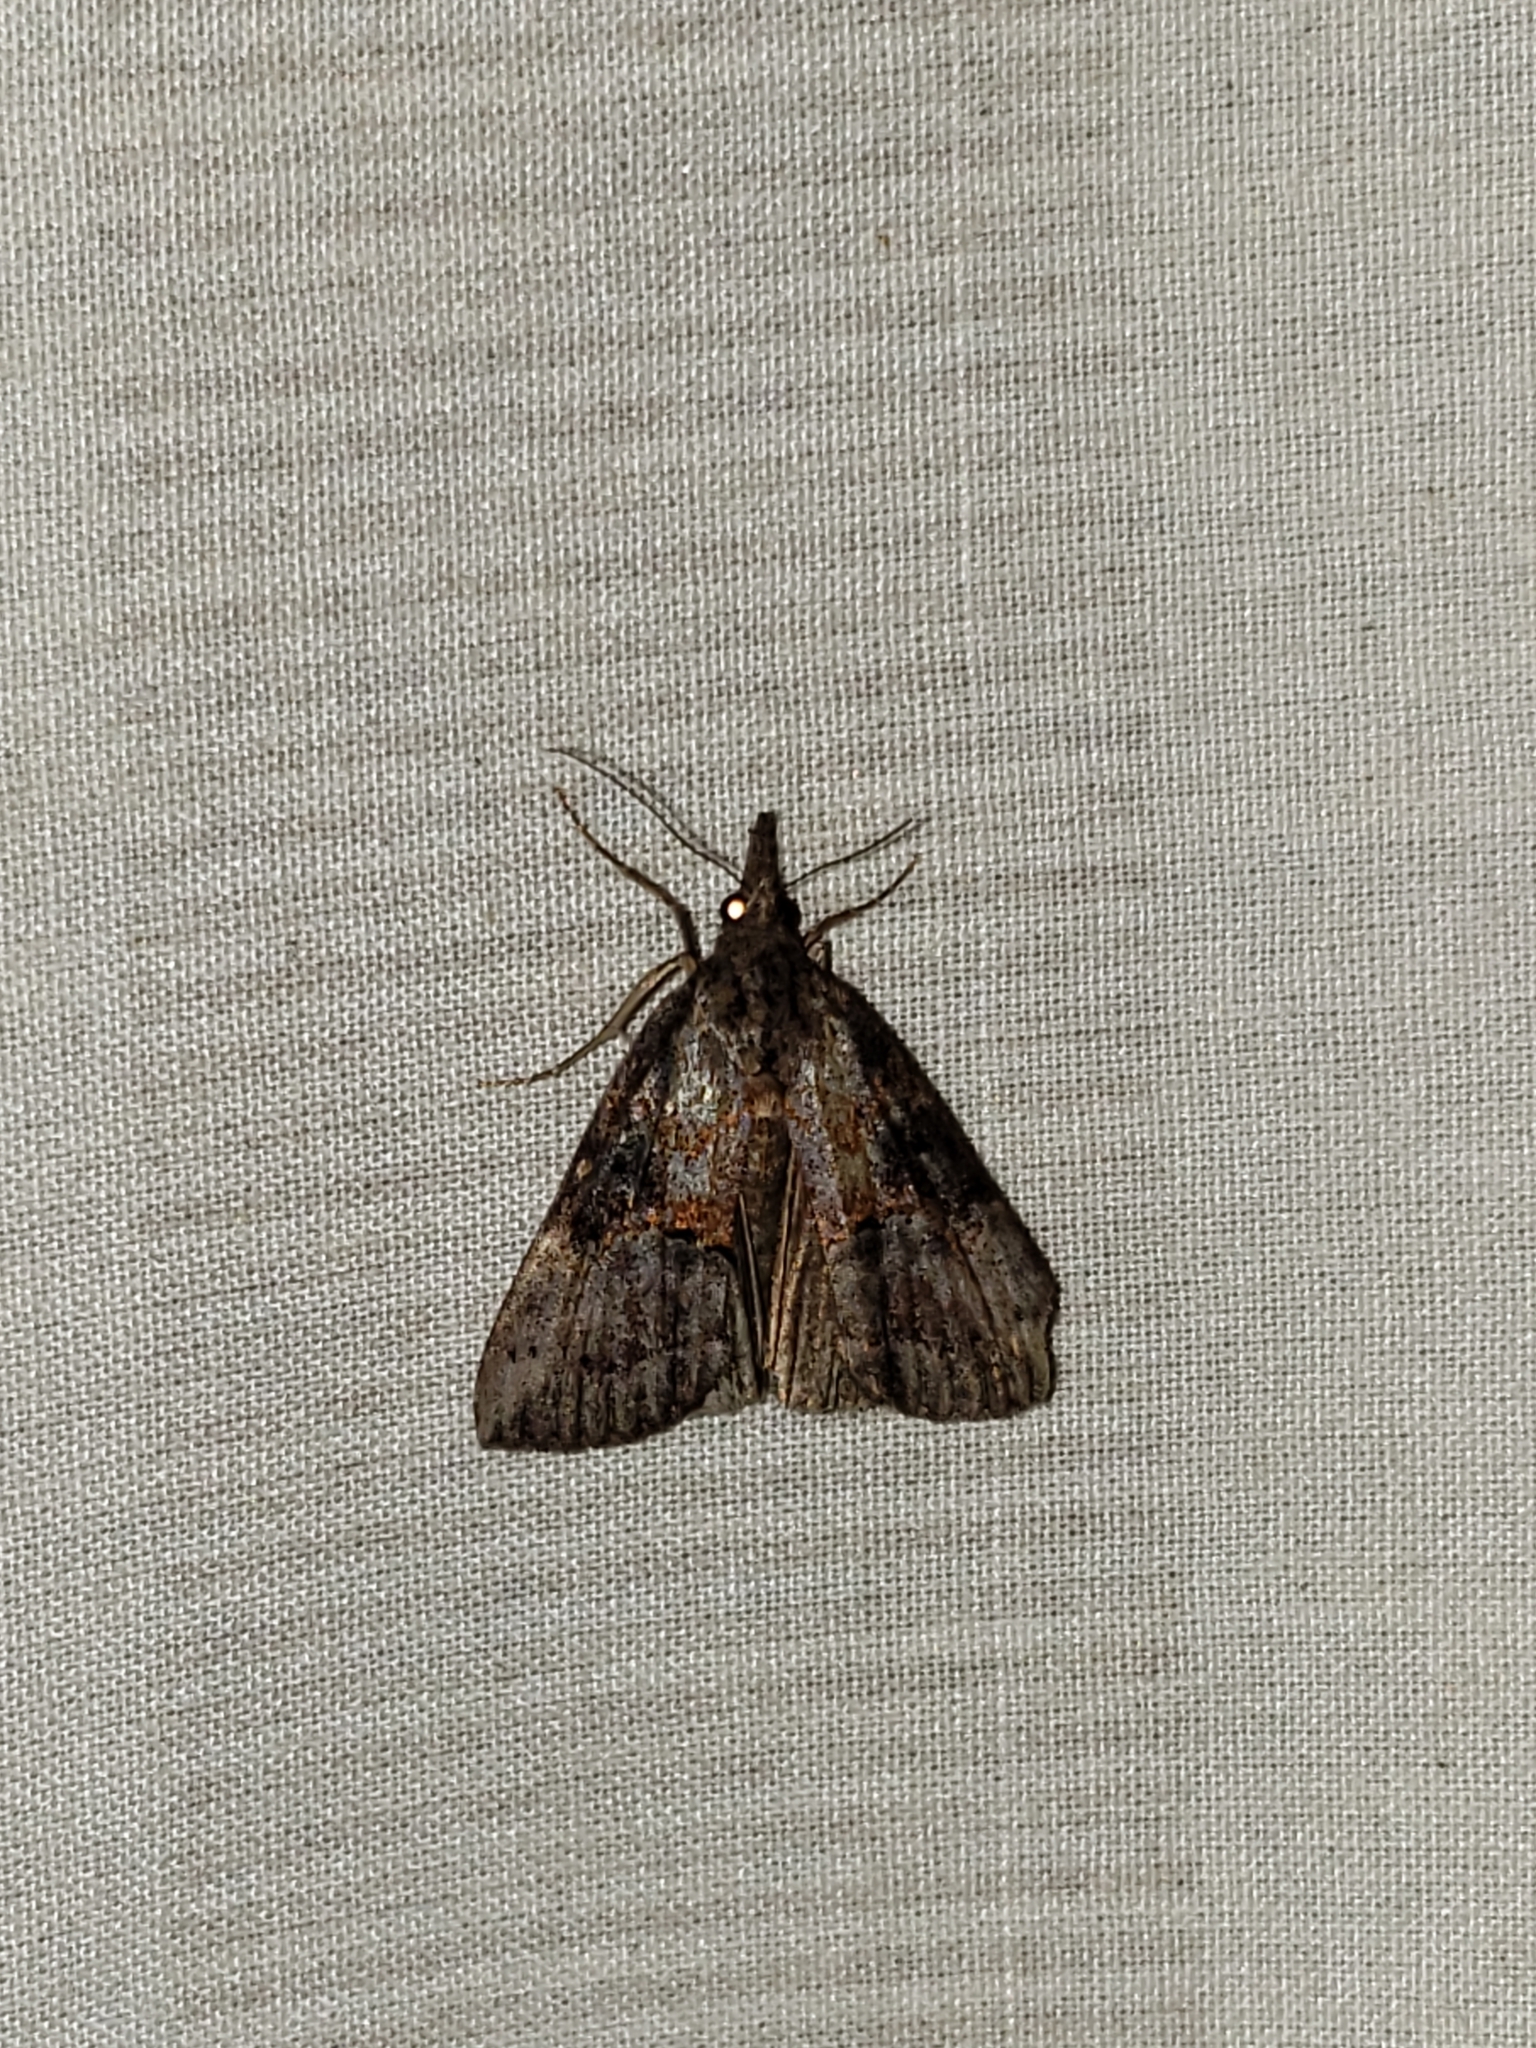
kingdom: Animalia
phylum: Arthropoda
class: Insecta
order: Lepidoptera
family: Erebidae
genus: Hypena
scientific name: Hypena scabra
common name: Green cloverworm
